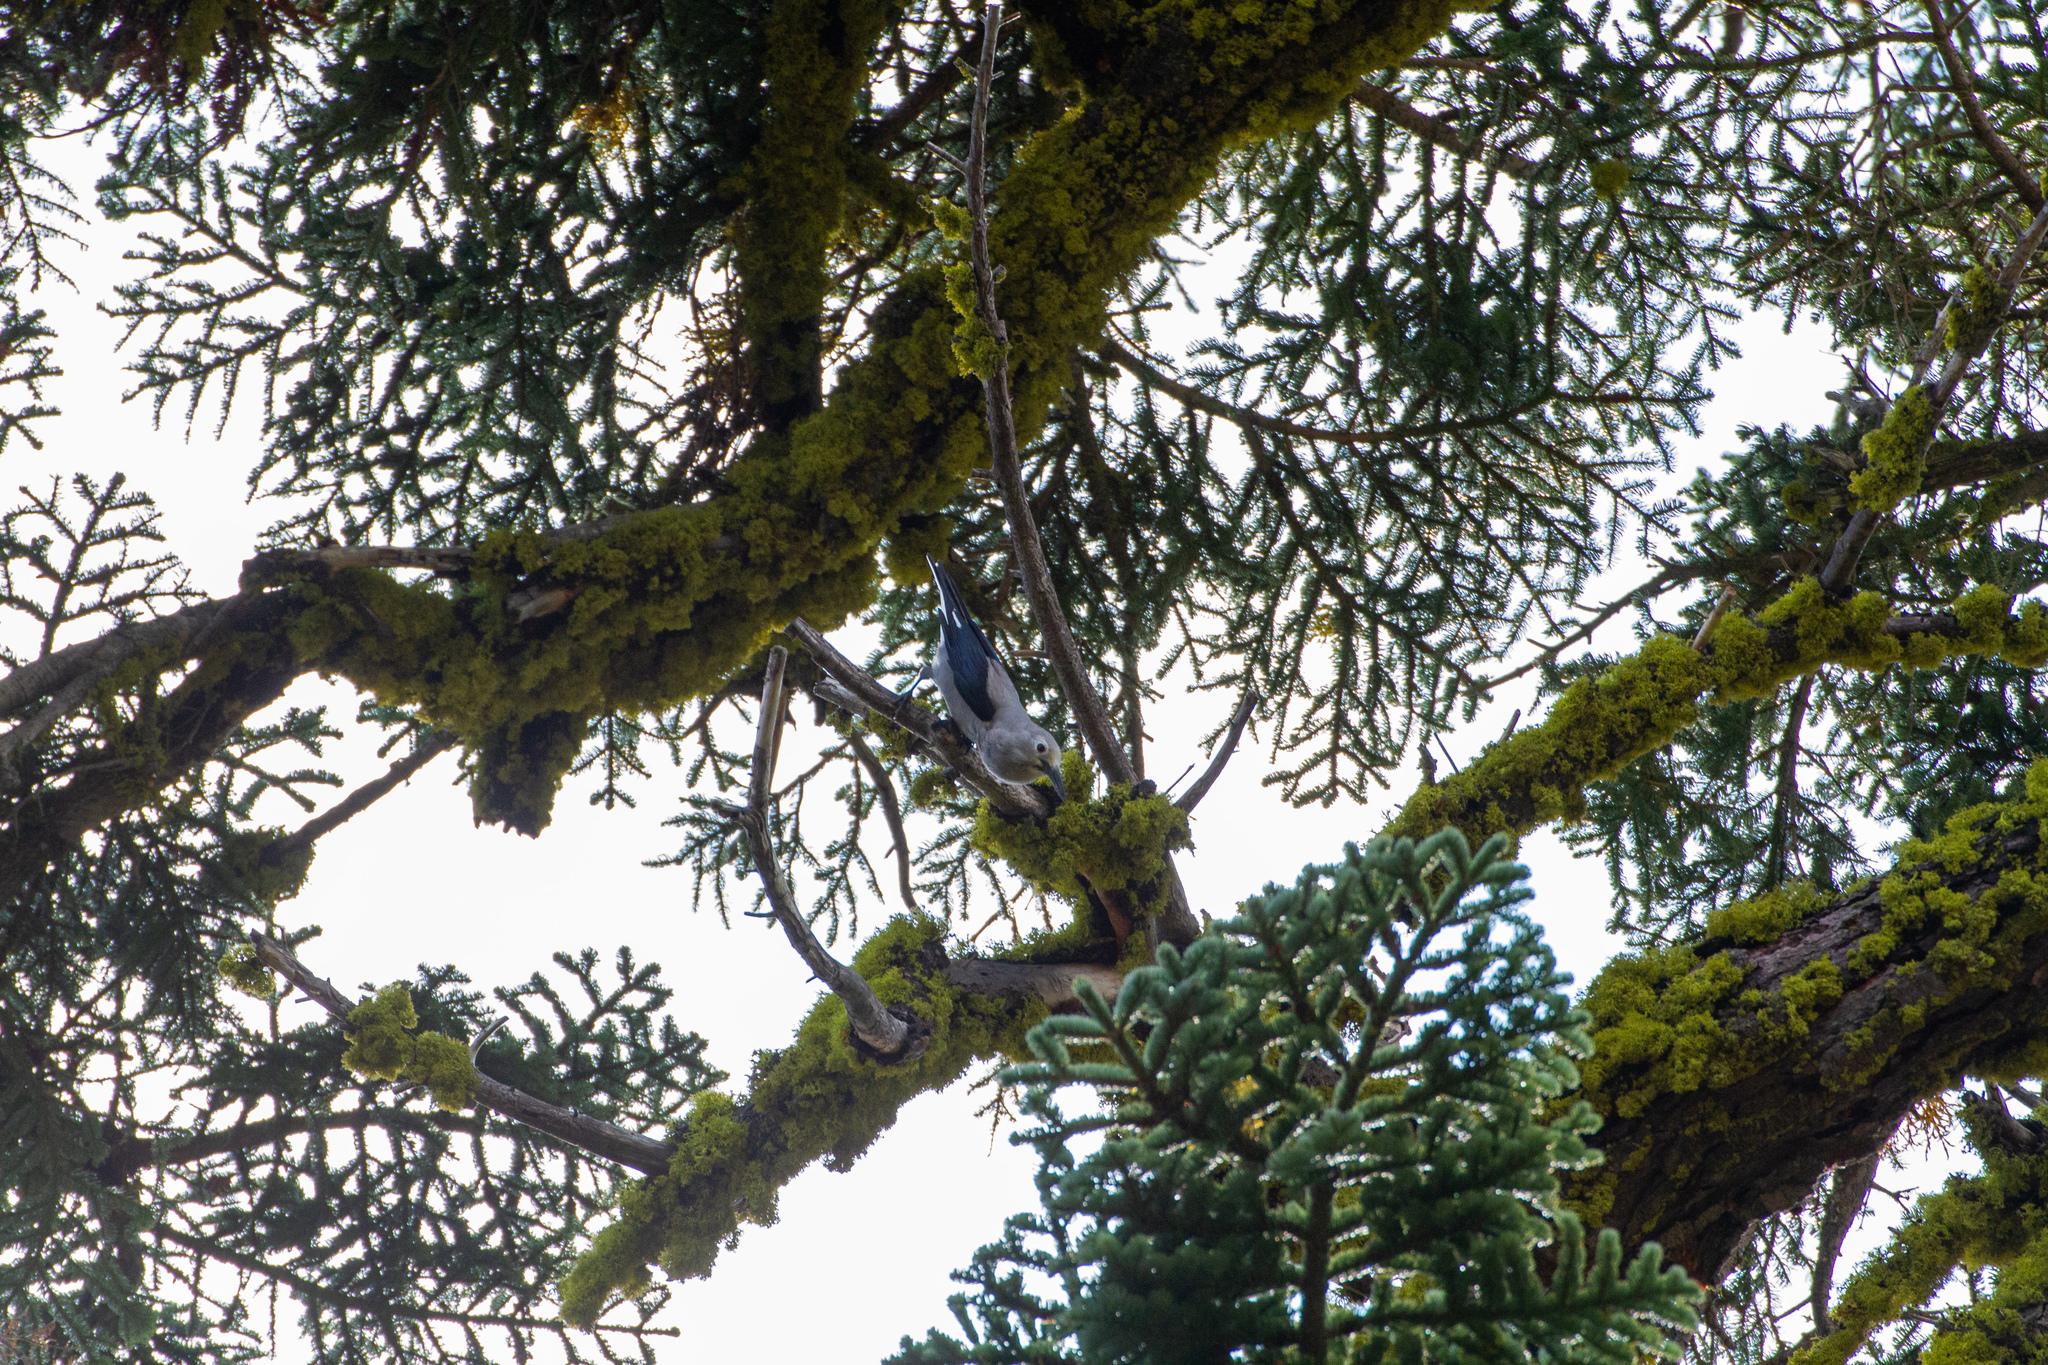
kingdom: Animalia
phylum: Chordata
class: Aves
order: Passeriformes
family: Corvidae
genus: Nucifraga
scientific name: Nucifraga columbiana
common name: Clark's nutcracker
